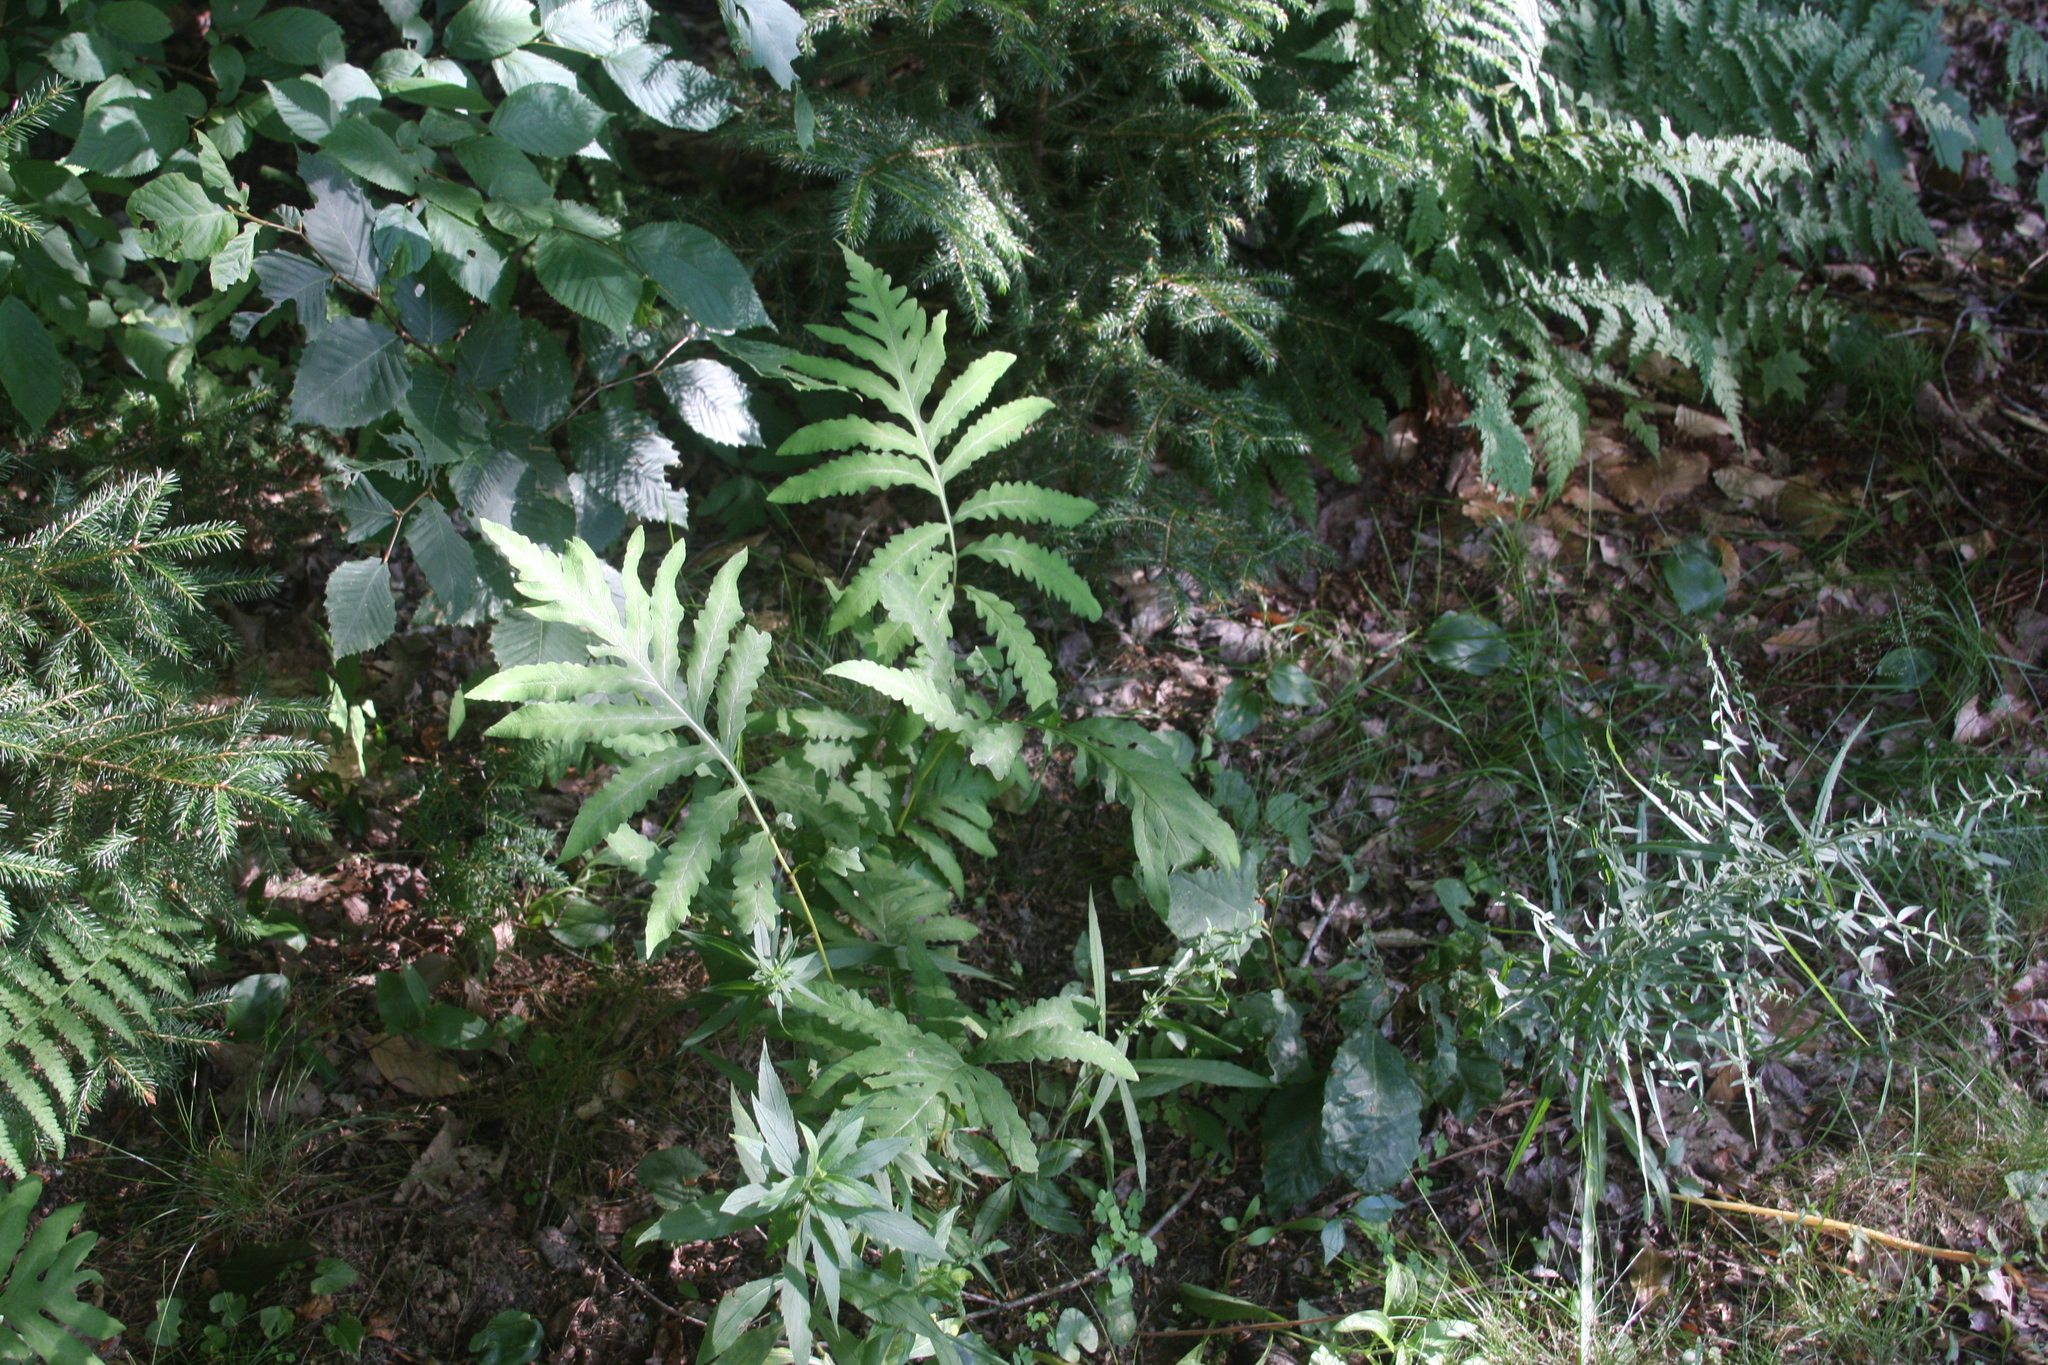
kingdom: Plantae
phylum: Tracheophyta
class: Polypodiopsida
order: Polypodiales
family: Onocleaceae
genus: Onoclea
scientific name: Onoclea sensibilis
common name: Sensitive fern
